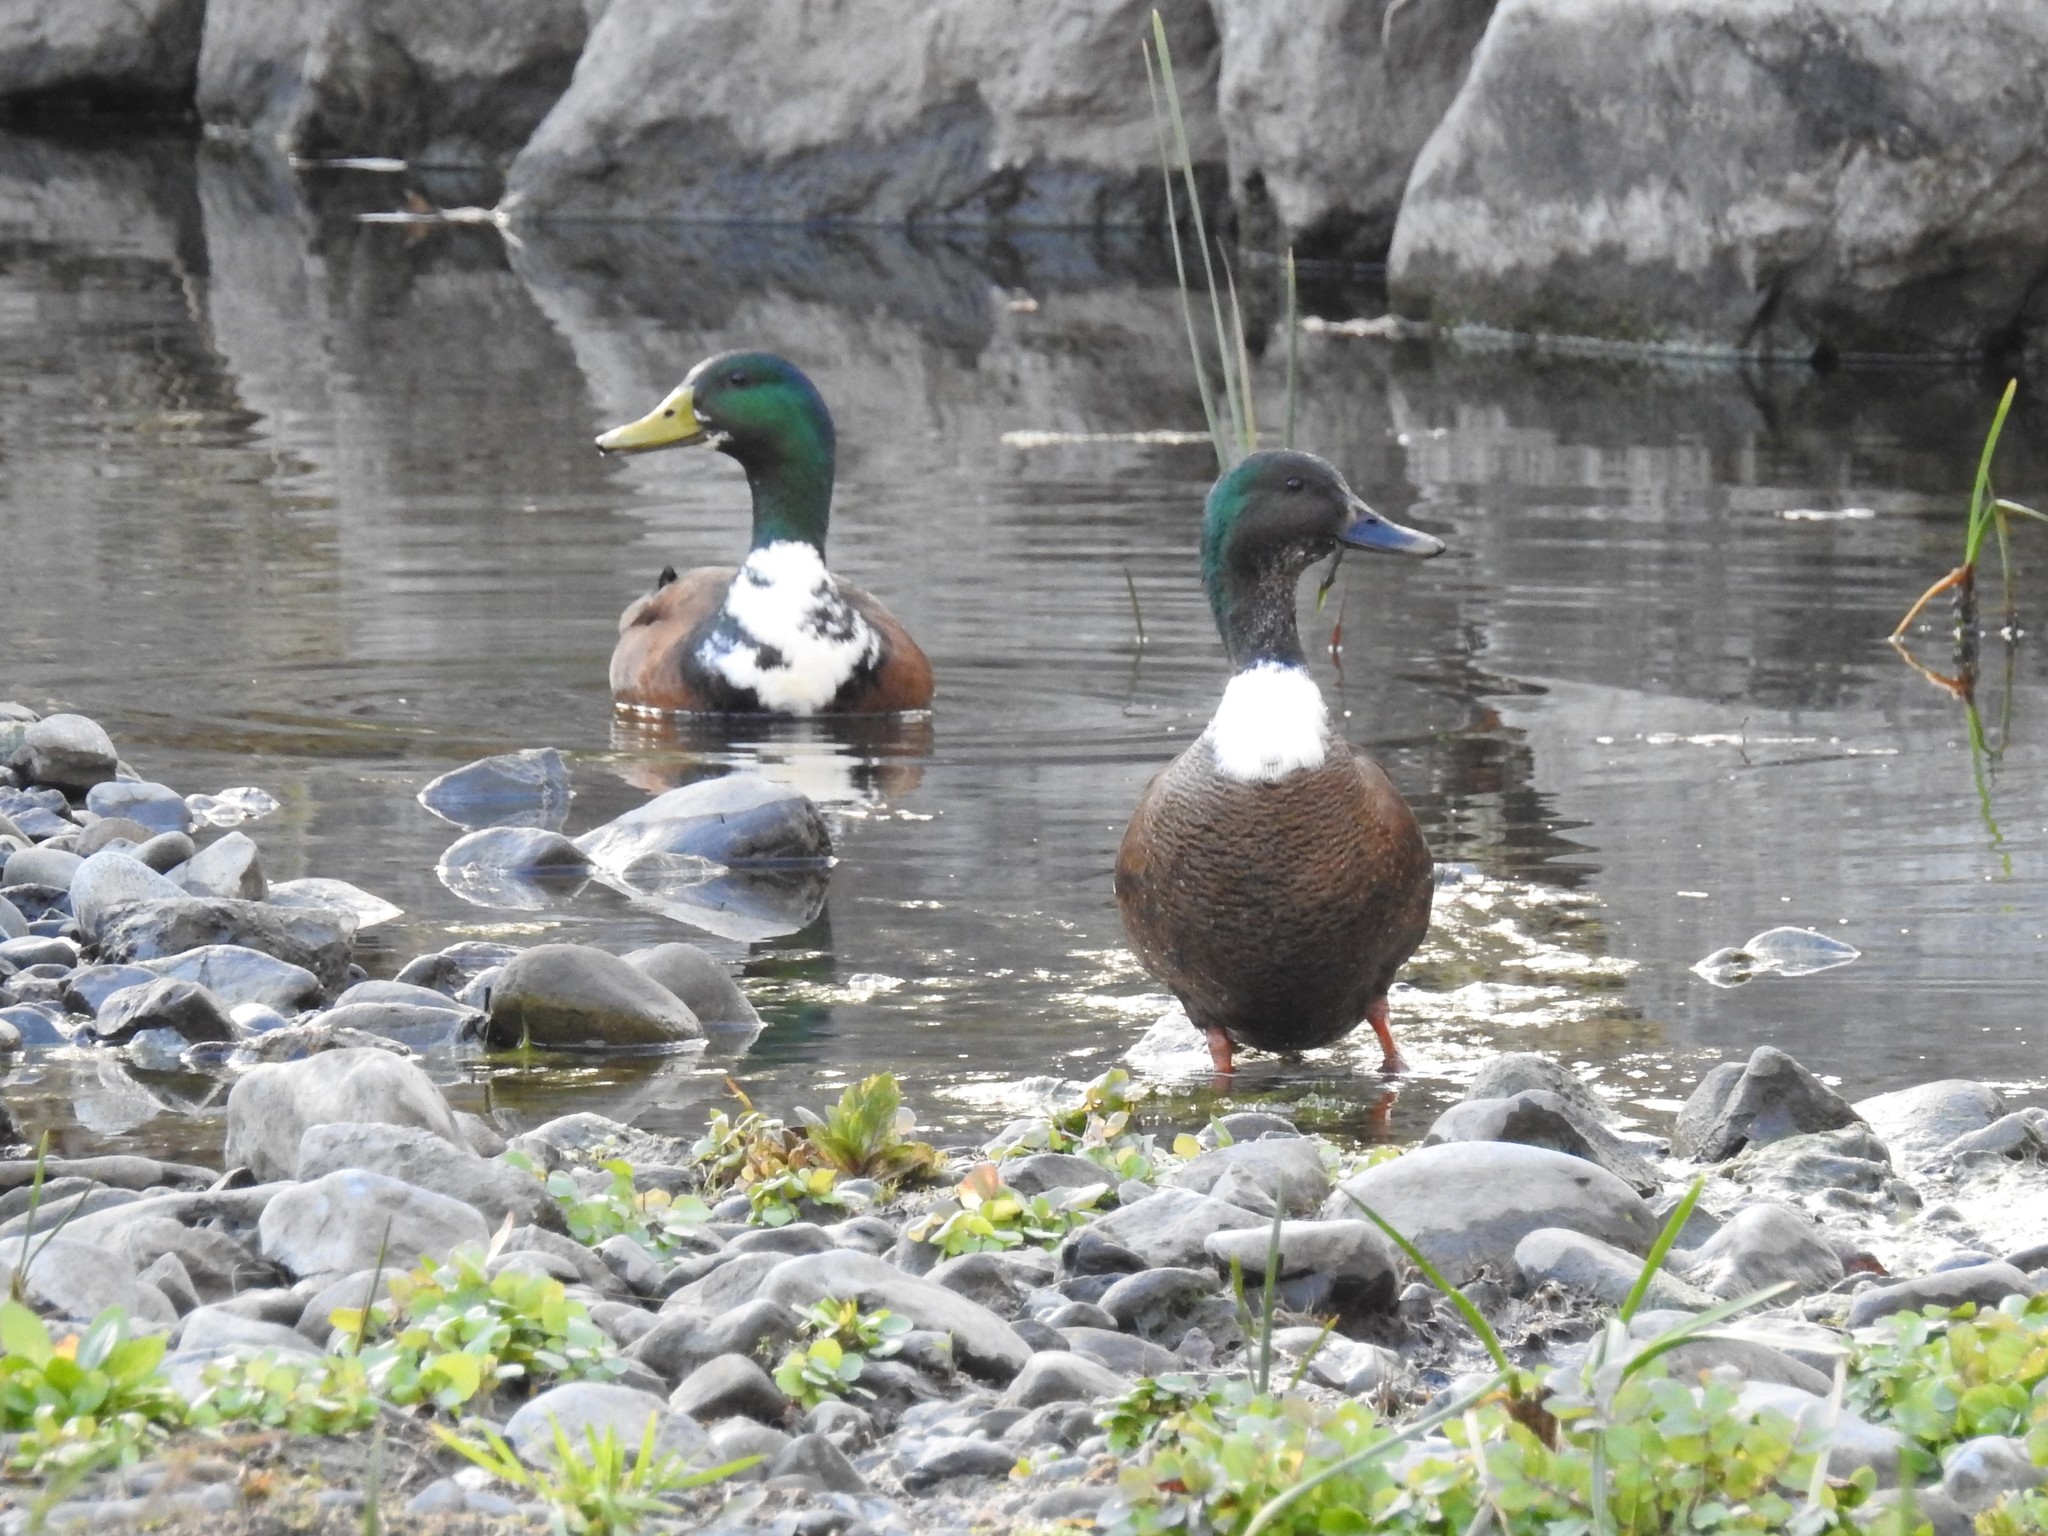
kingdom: Animalia
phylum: Chordata
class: Aves
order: Anseriformes
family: Anatidae
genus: Anas
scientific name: Anas platyrhynchos
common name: Mallard
